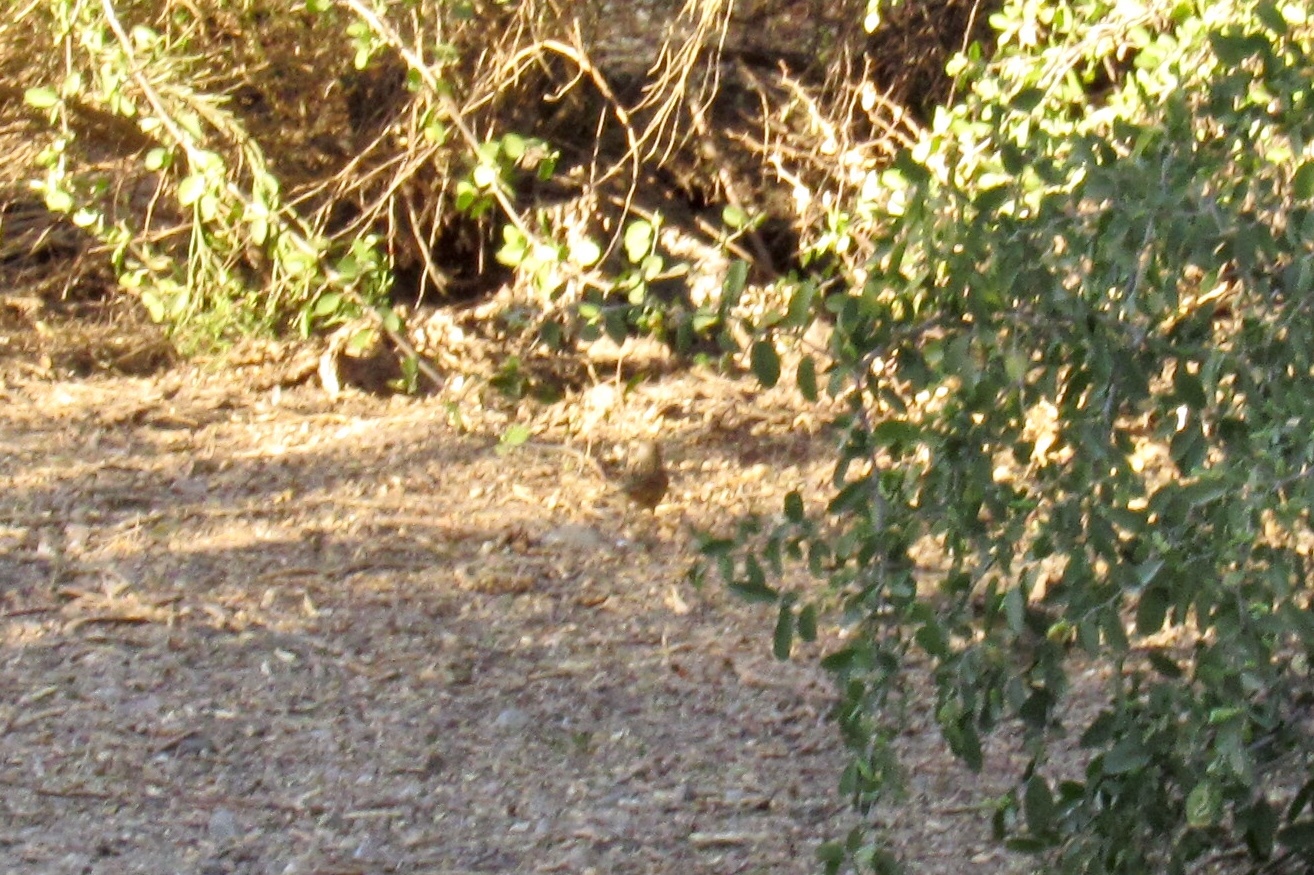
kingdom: Animalia
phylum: Chordata
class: Aves
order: Passeriformes
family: Passerellidae
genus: Zonotrichia
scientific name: Zonotrichia leucophrys
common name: White-crowned sparrow
